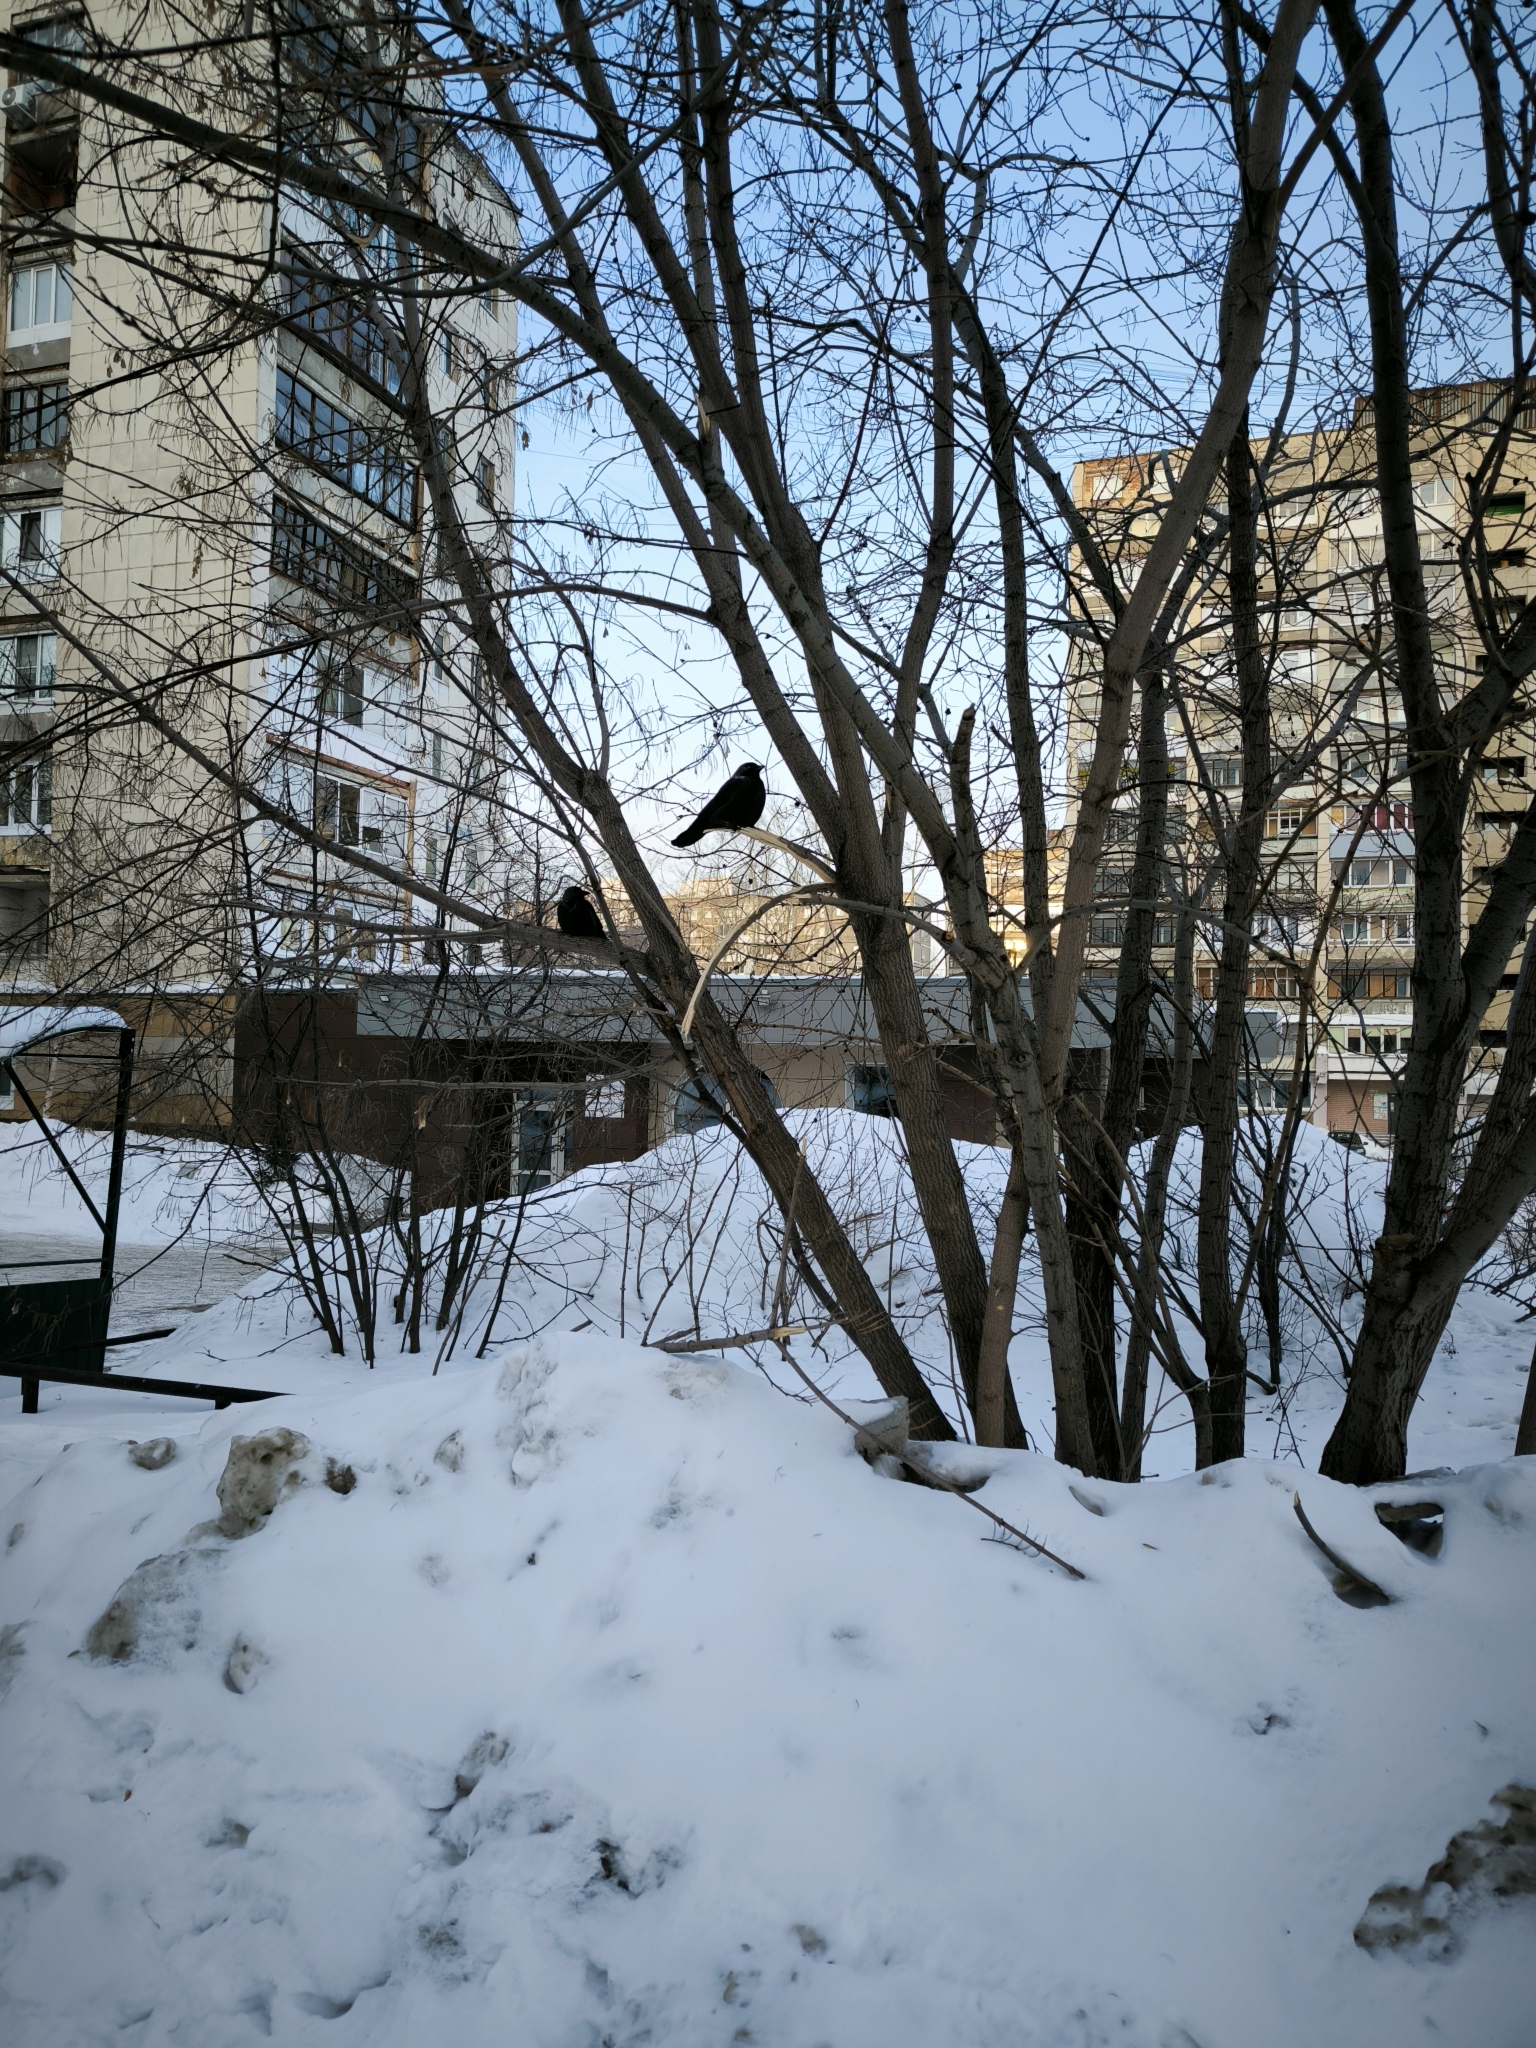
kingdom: Animalia
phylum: Chordata
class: Aves
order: Passeriformes
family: Corvidae
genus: Coloeus
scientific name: Coloeus monedula
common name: Western jackdaw
